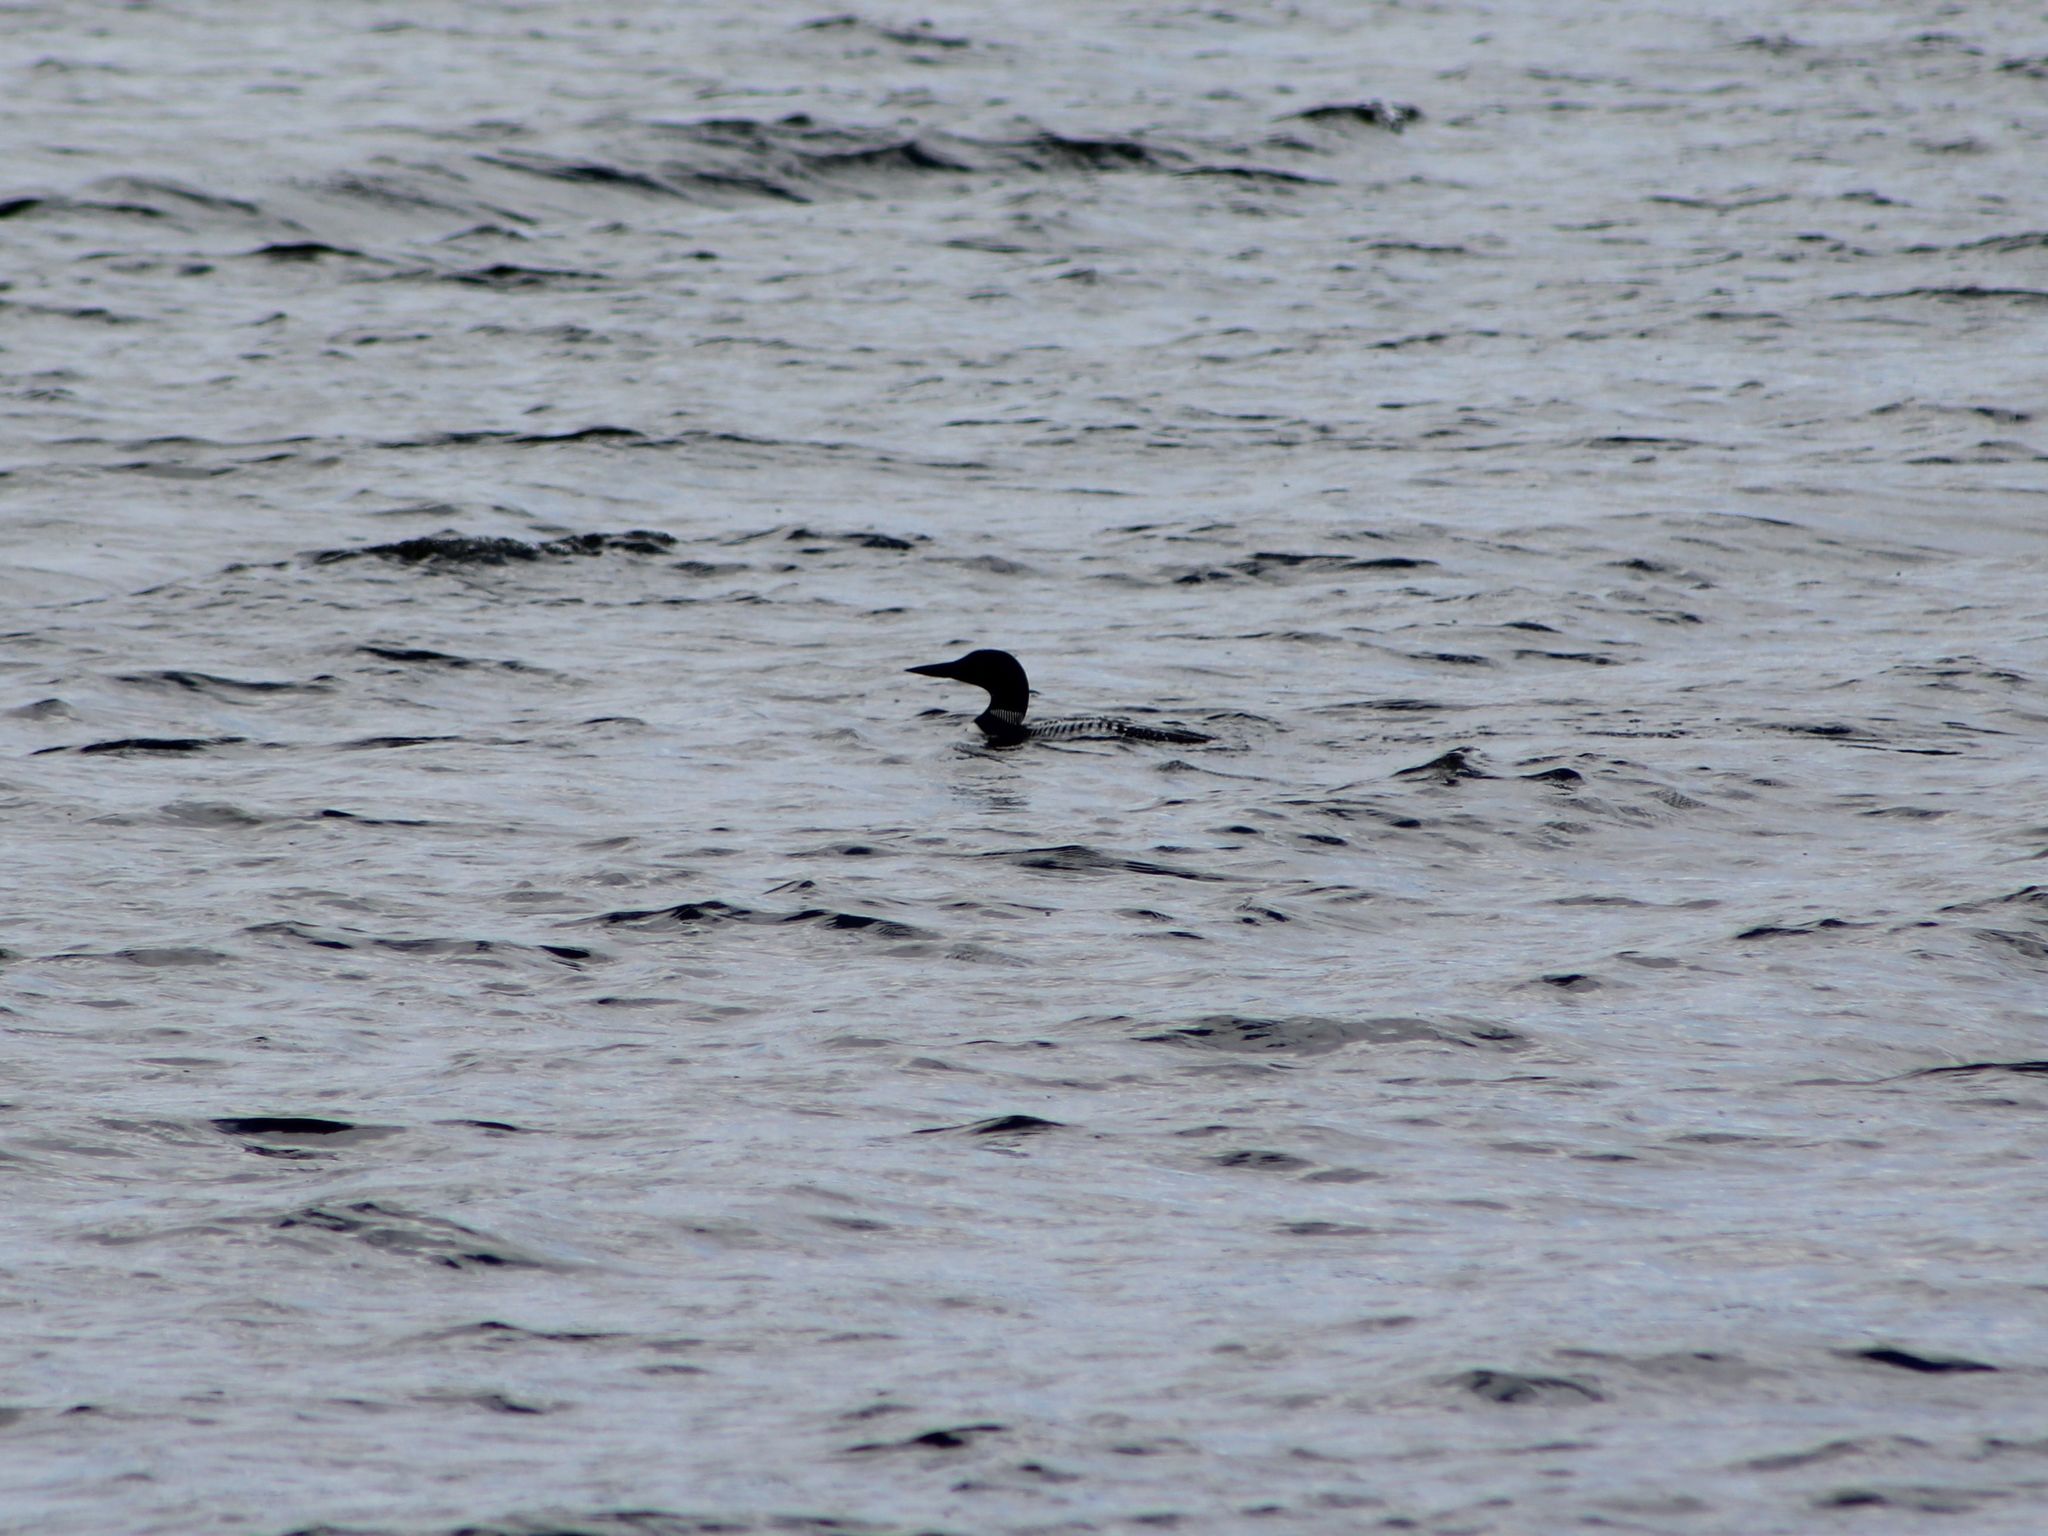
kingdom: Animalia
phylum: Chordata
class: Aves
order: Gaviiformes
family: Gaviidae
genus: Gavia
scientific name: Gavia immer
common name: Common loon
